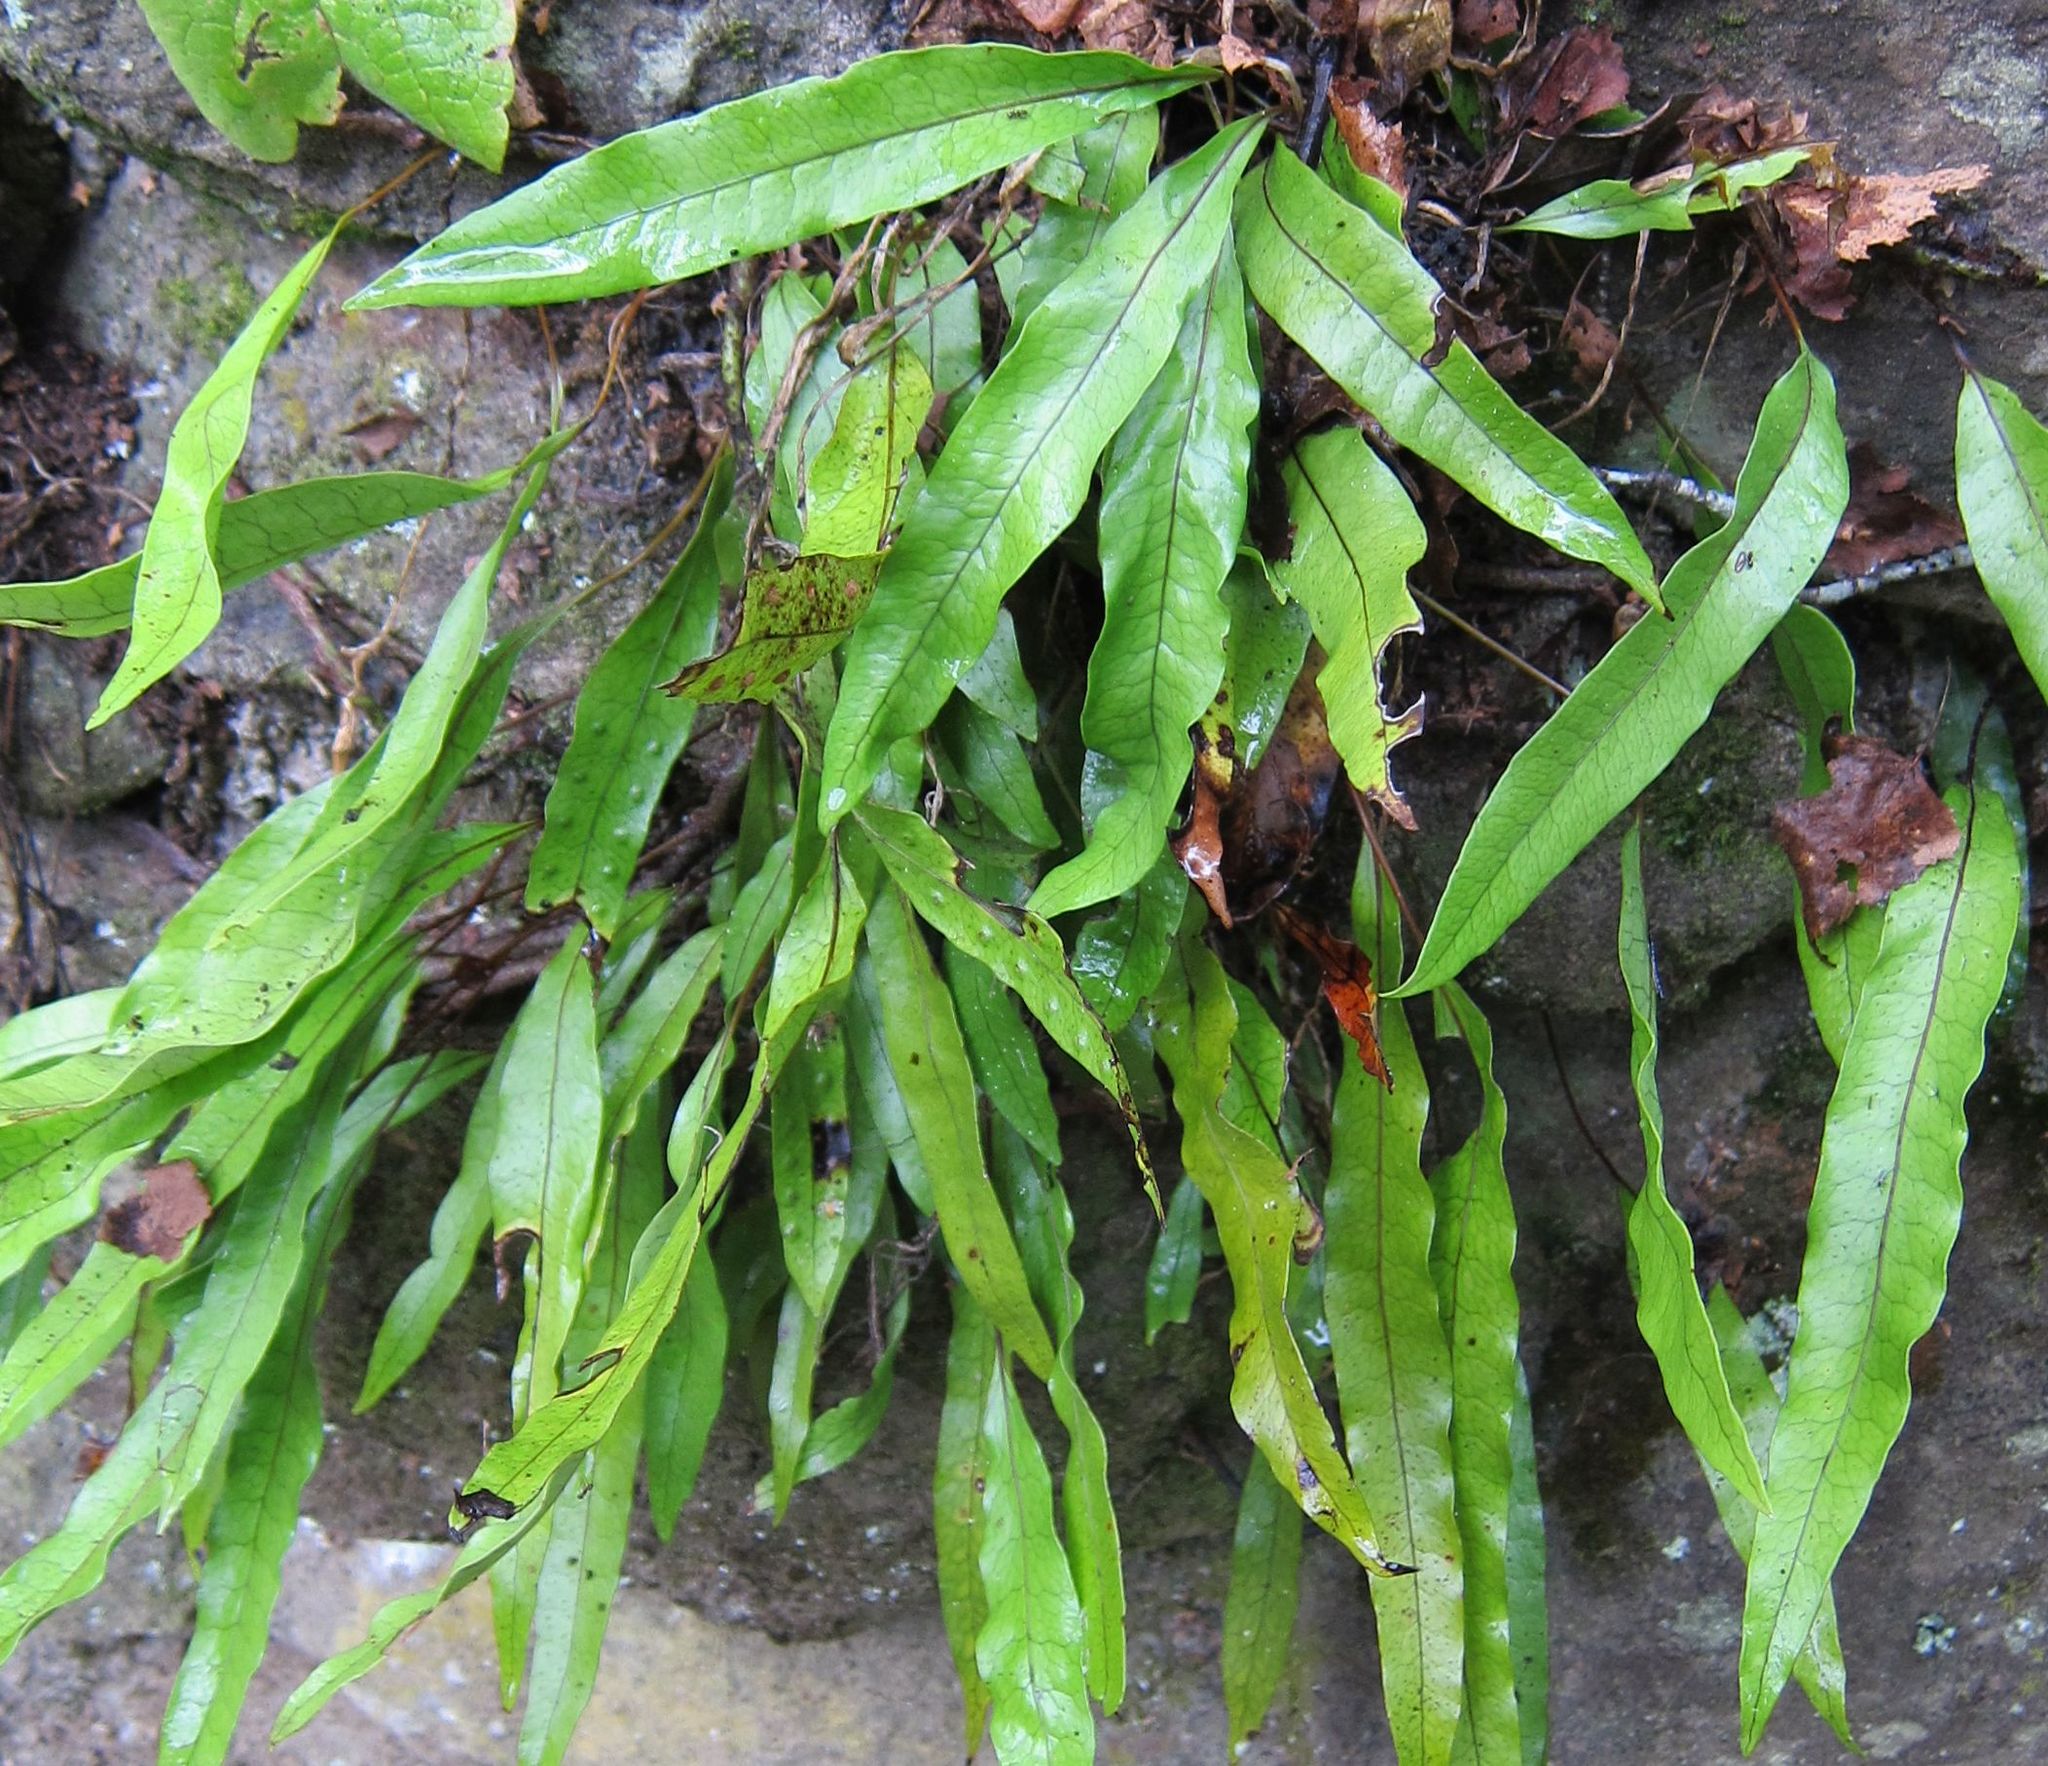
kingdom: Plantae
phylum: Tracheophyta
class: Polypodiopsida
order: Polypodiales
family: Polypodiaceae
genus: Lecanopteris
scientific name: Lecanopteris pustulata
